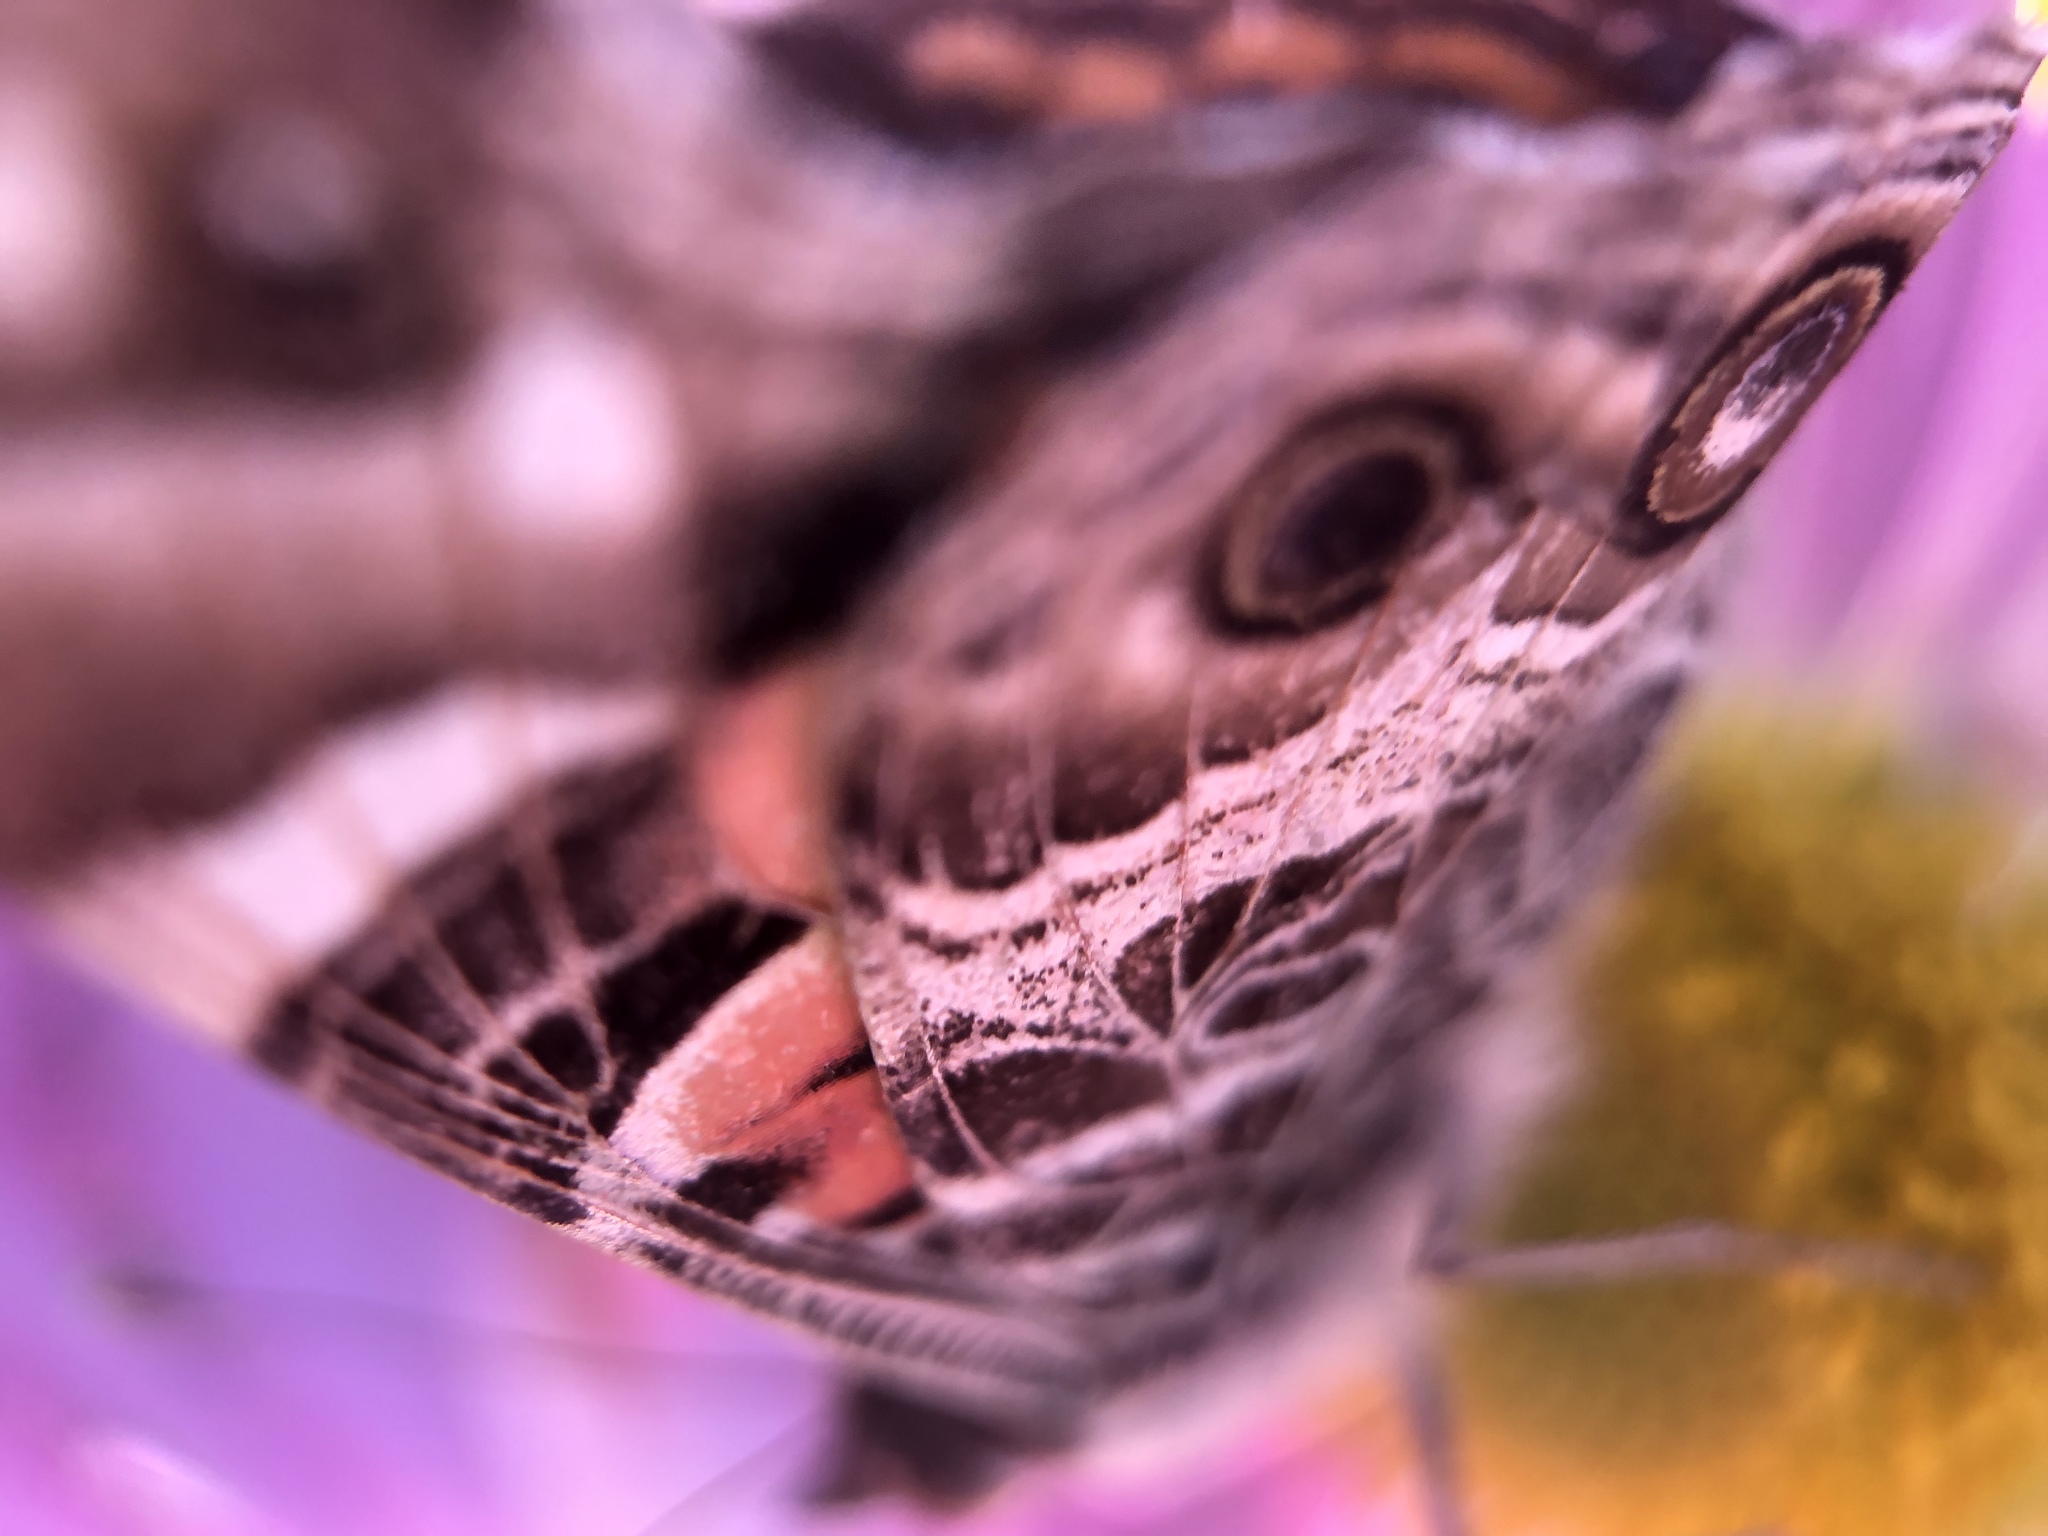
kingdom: Animalia
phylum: Arthropoda
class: Insecta
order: Lepidoptera
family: Nymphalidae
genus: Vanessa
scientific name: Vanessa virginiensis
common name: American lady
